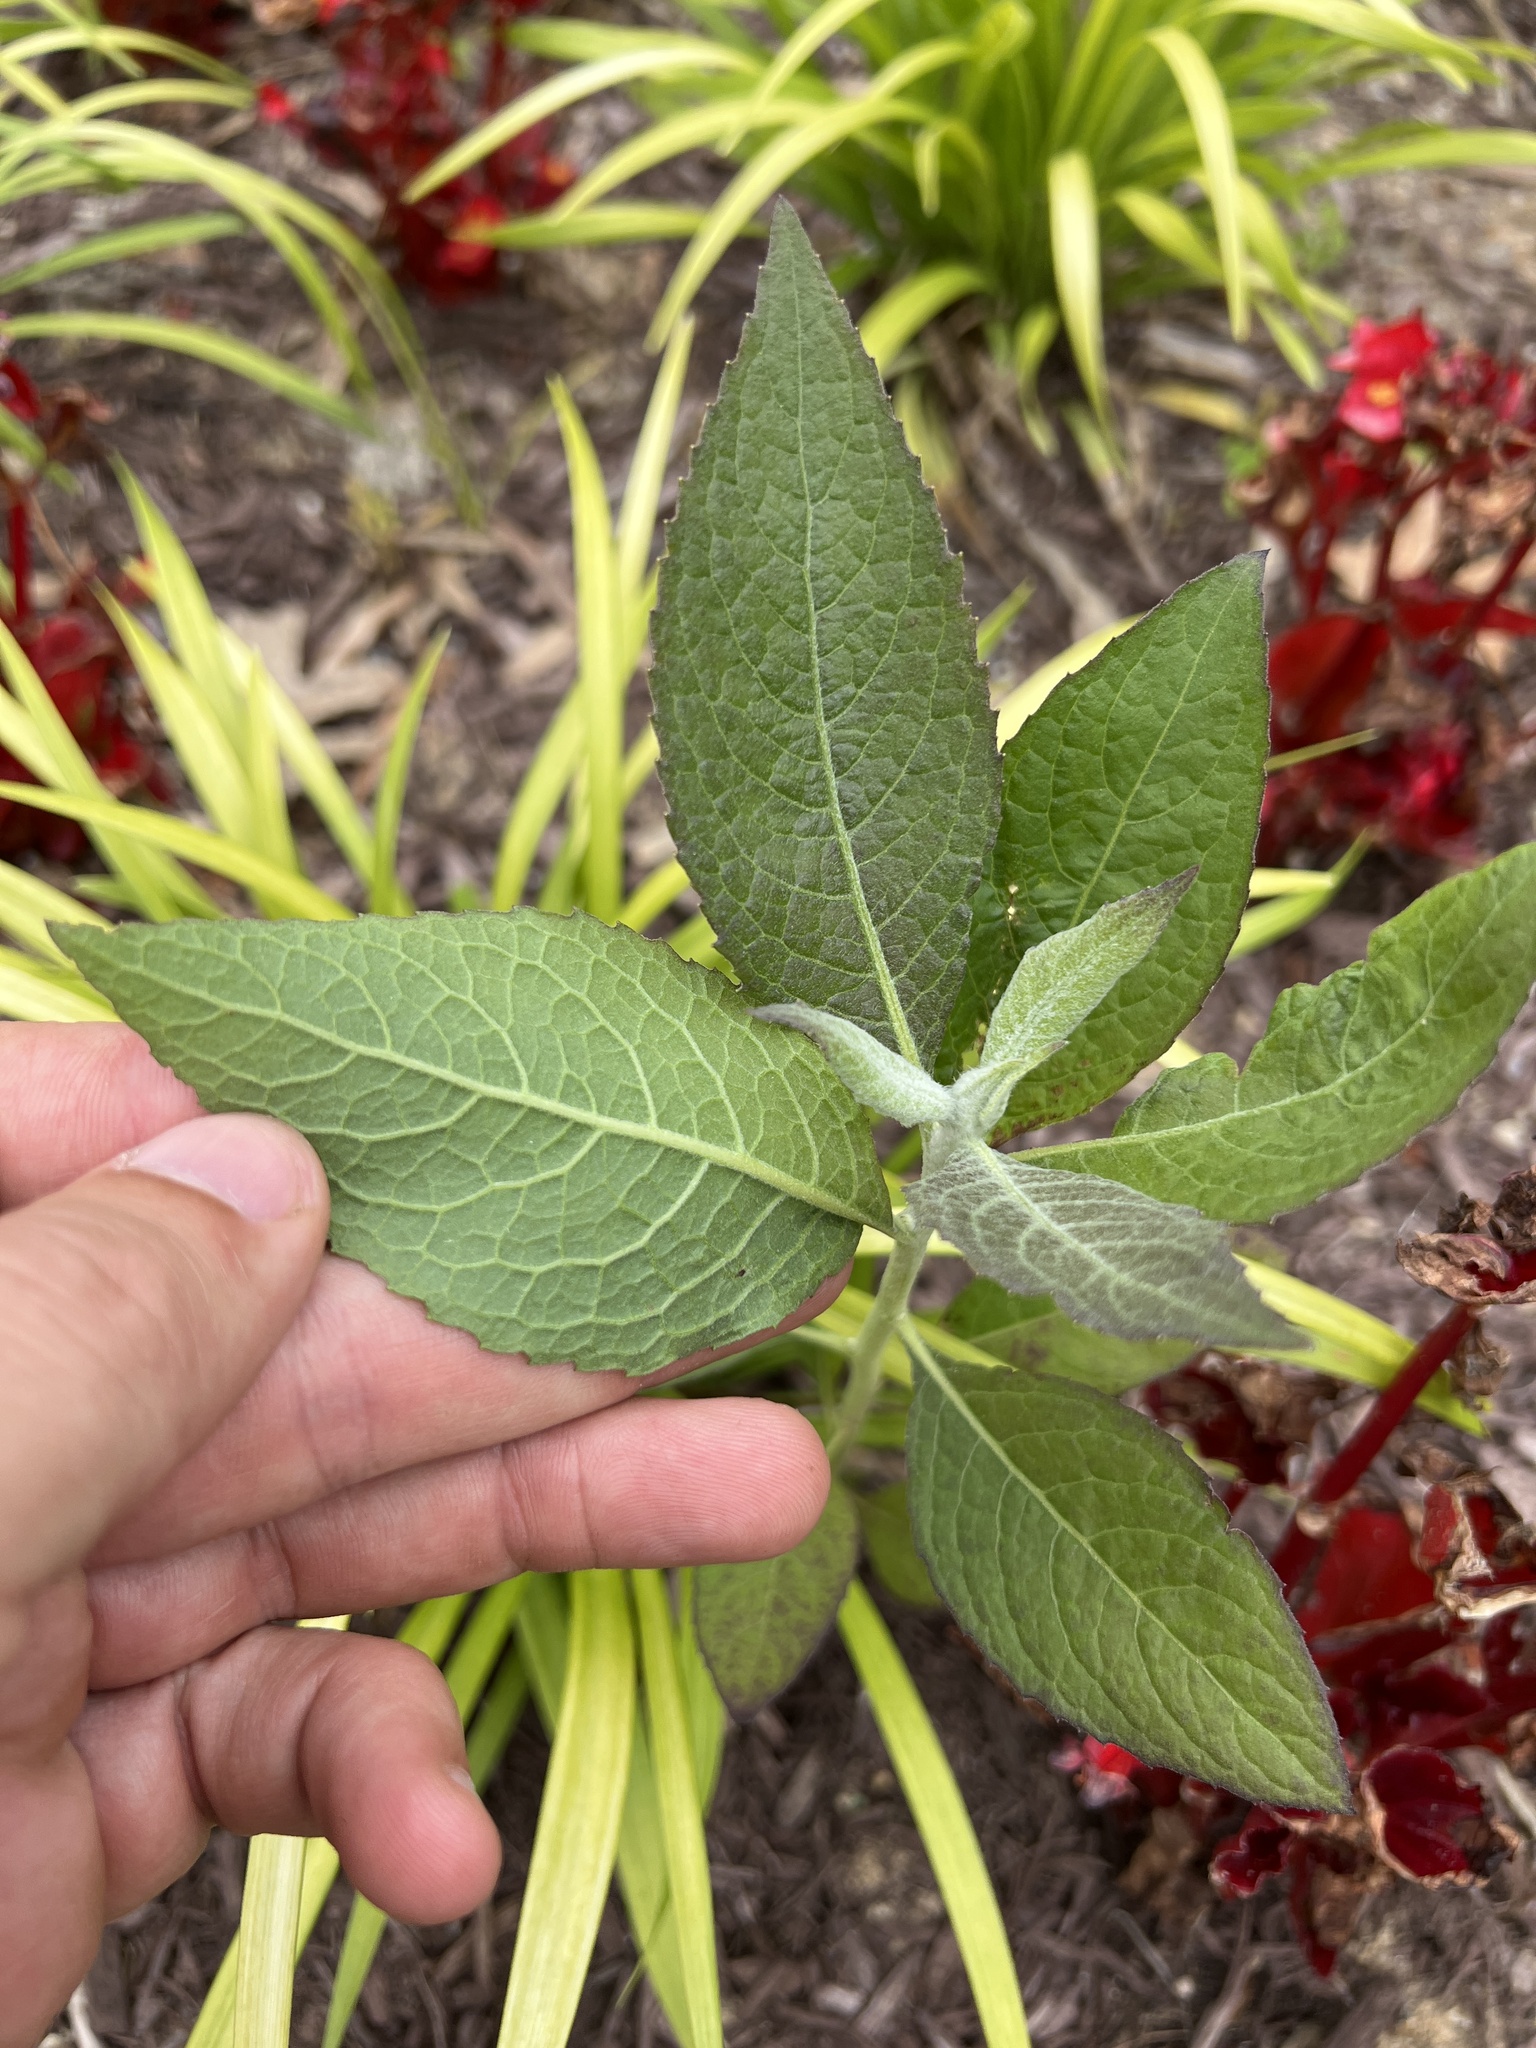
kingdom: Plantae
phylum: Tracheophyta
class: Magnoliopsida
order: Asterales
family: Asteraceae
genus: Pluchea
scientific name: Pluchea camphorata
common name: Camphor pluchea
